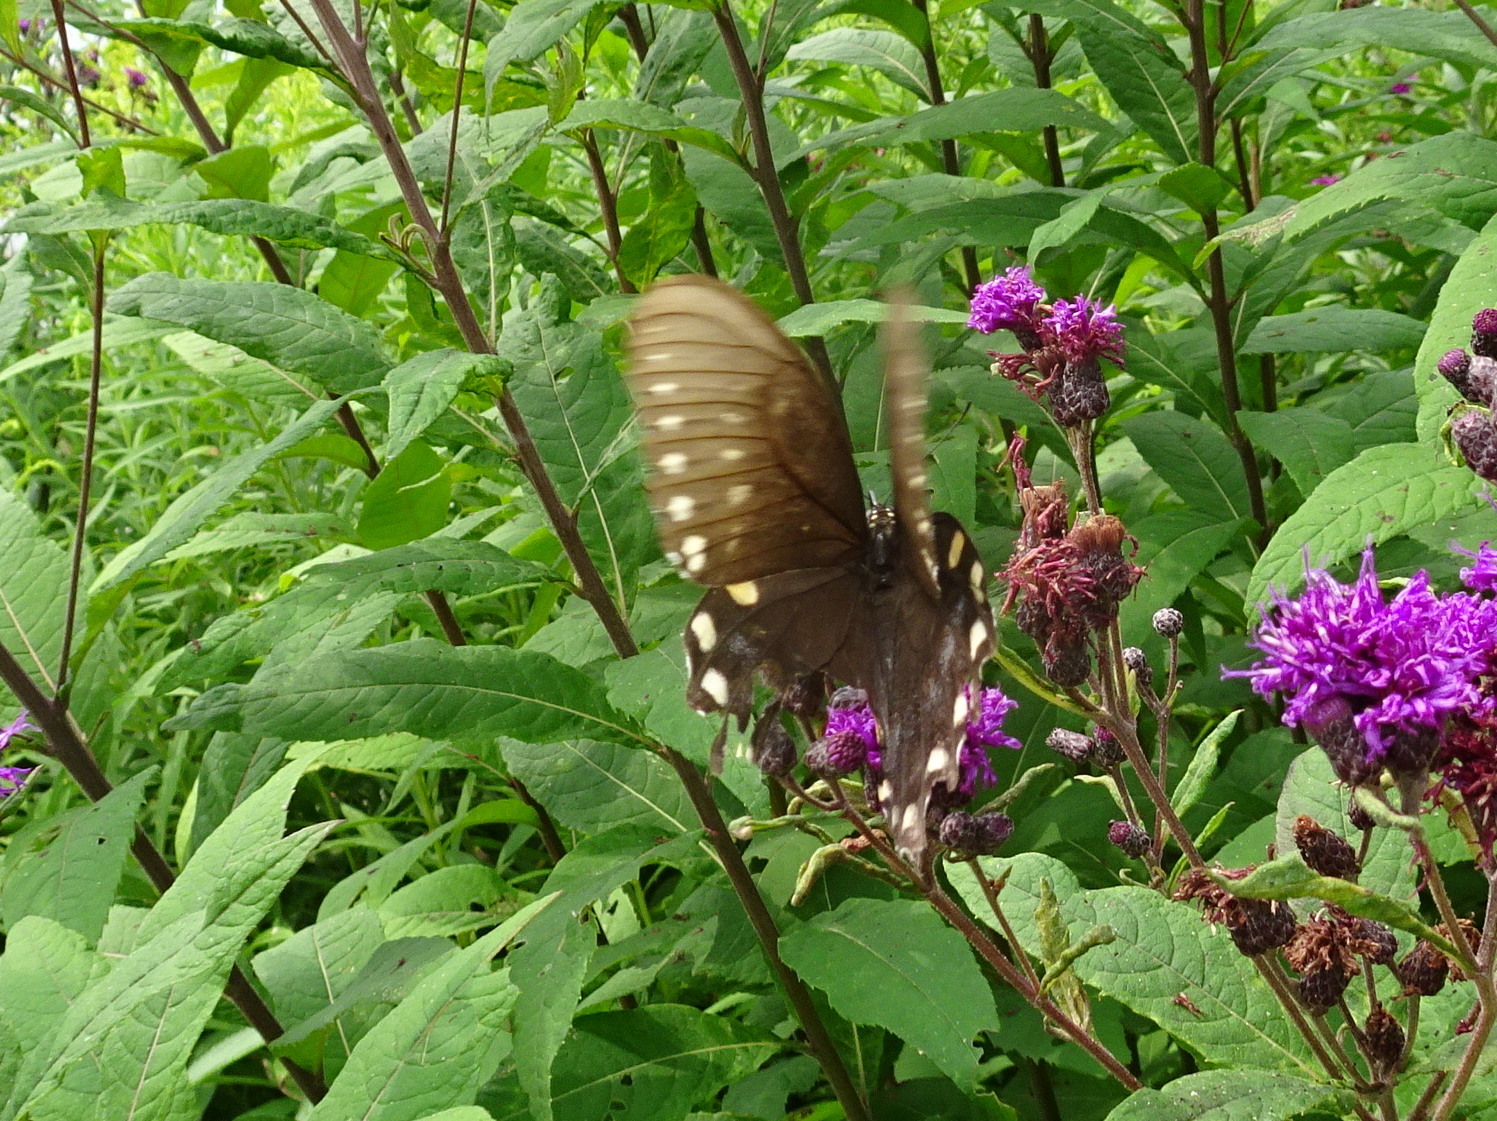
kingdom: Animalia
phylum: Arthropoda
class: Insecta
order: Lepidoptera
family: Papilionidae
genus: Papilio
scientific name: Papilio troilus
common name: Spicebush swallowtail
